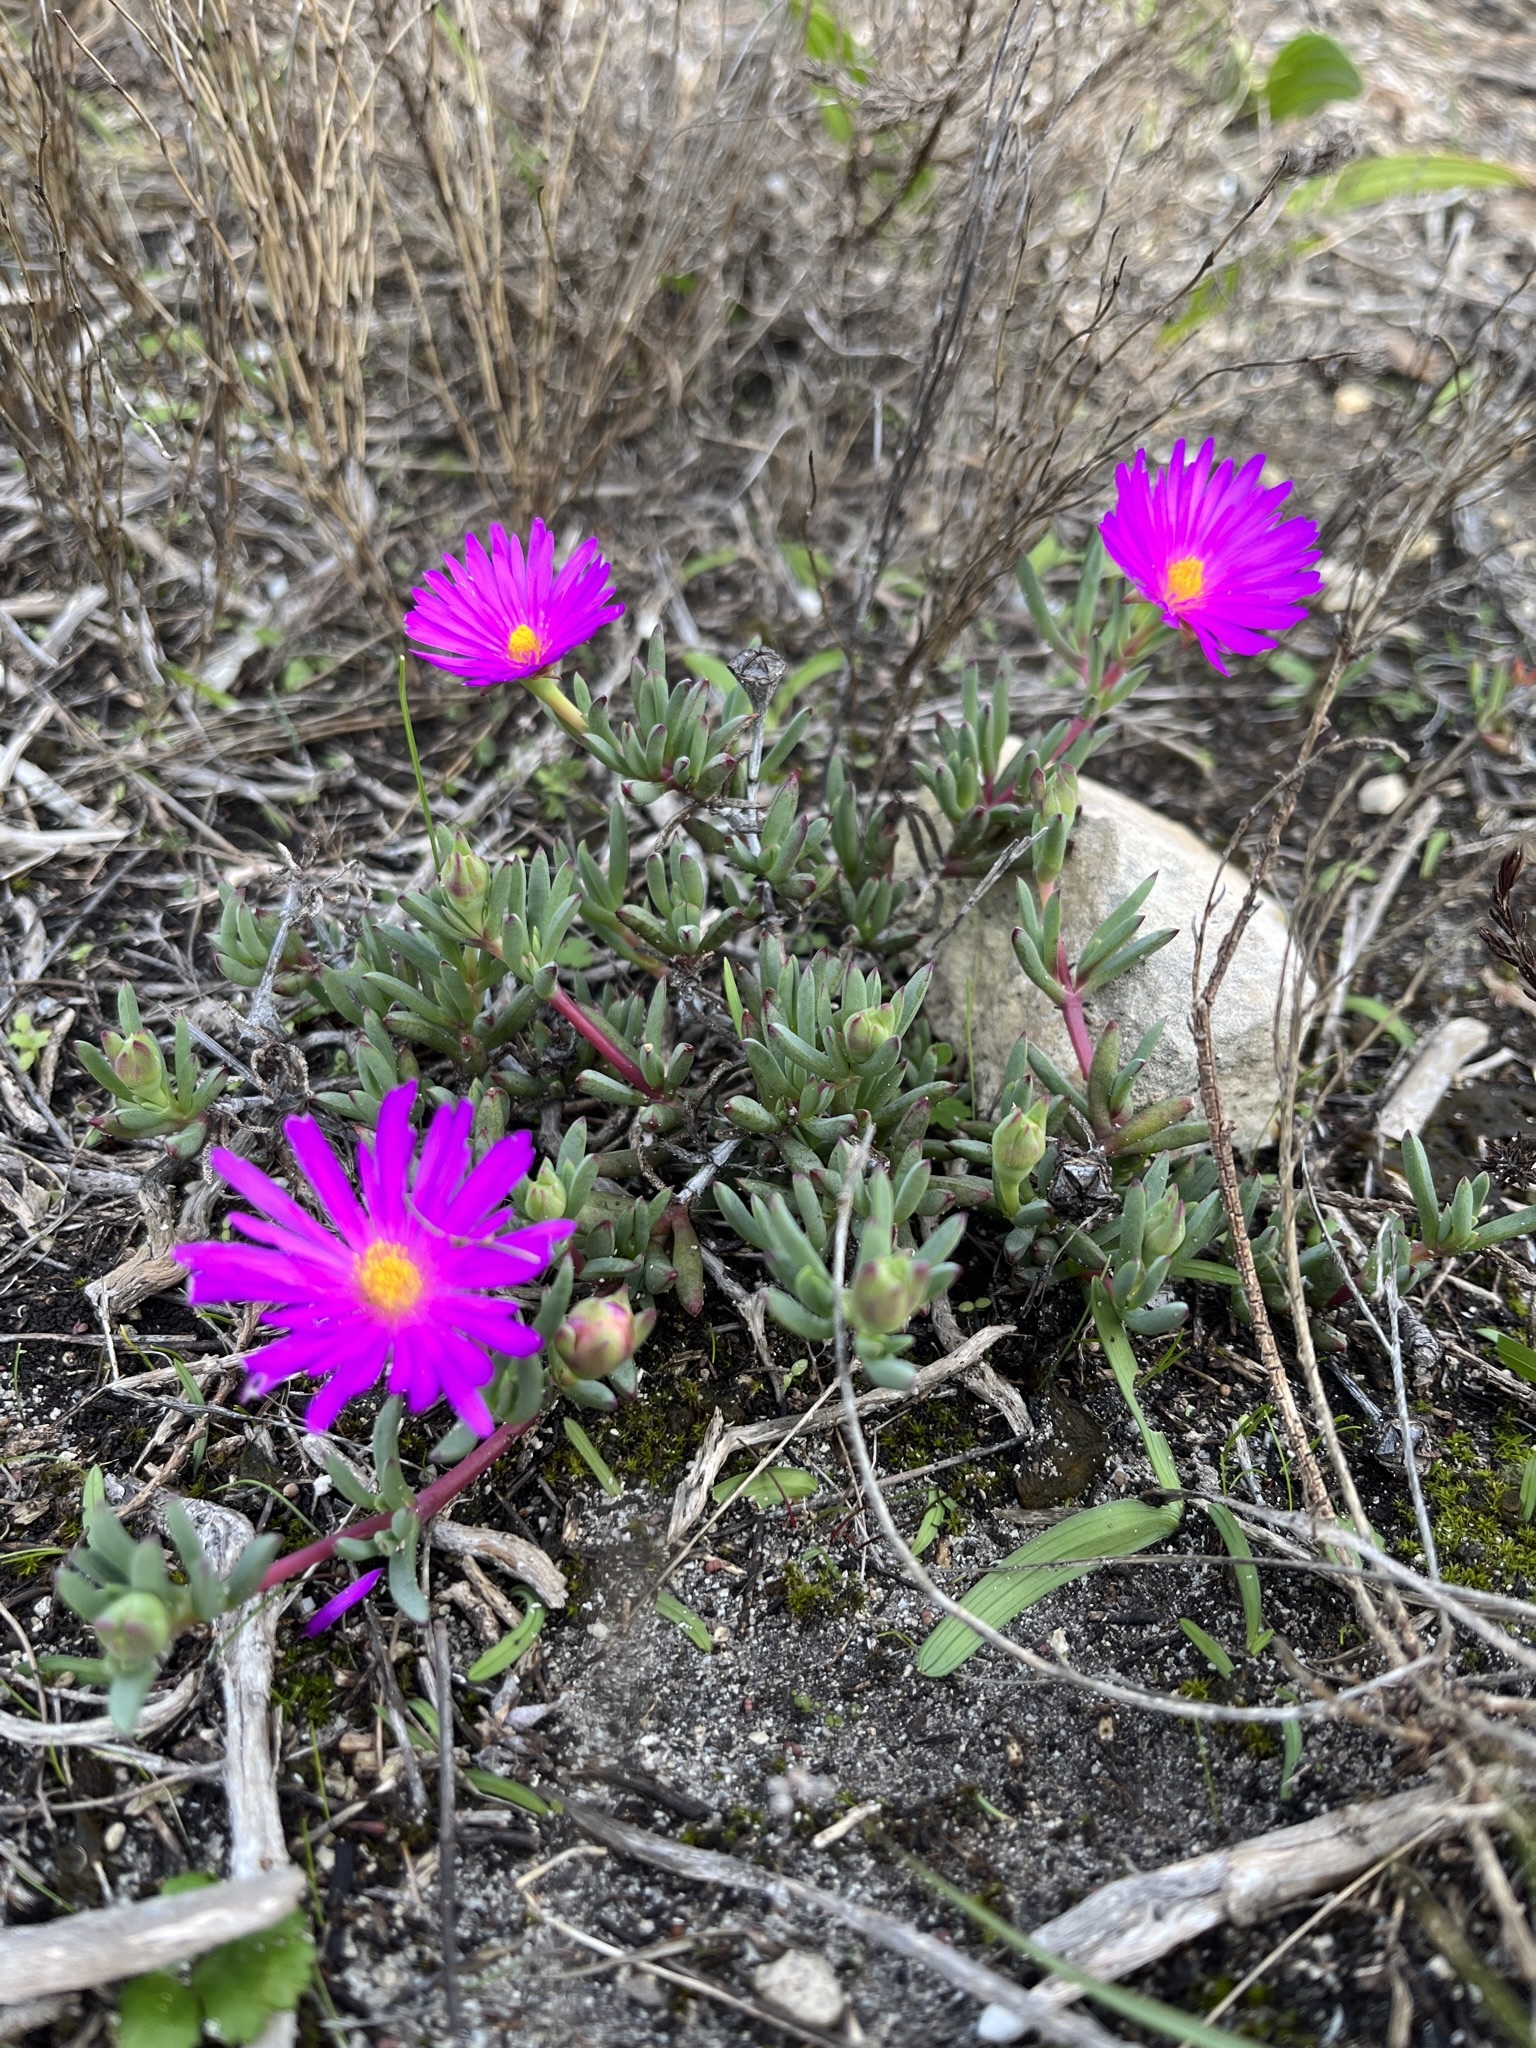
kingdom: Plantae
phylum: Tracheophyta
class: Magnoliopsida
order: Caryophyllales
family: Aizoaceae
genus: Lampranthus
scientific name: Lampranthus ceriseus
